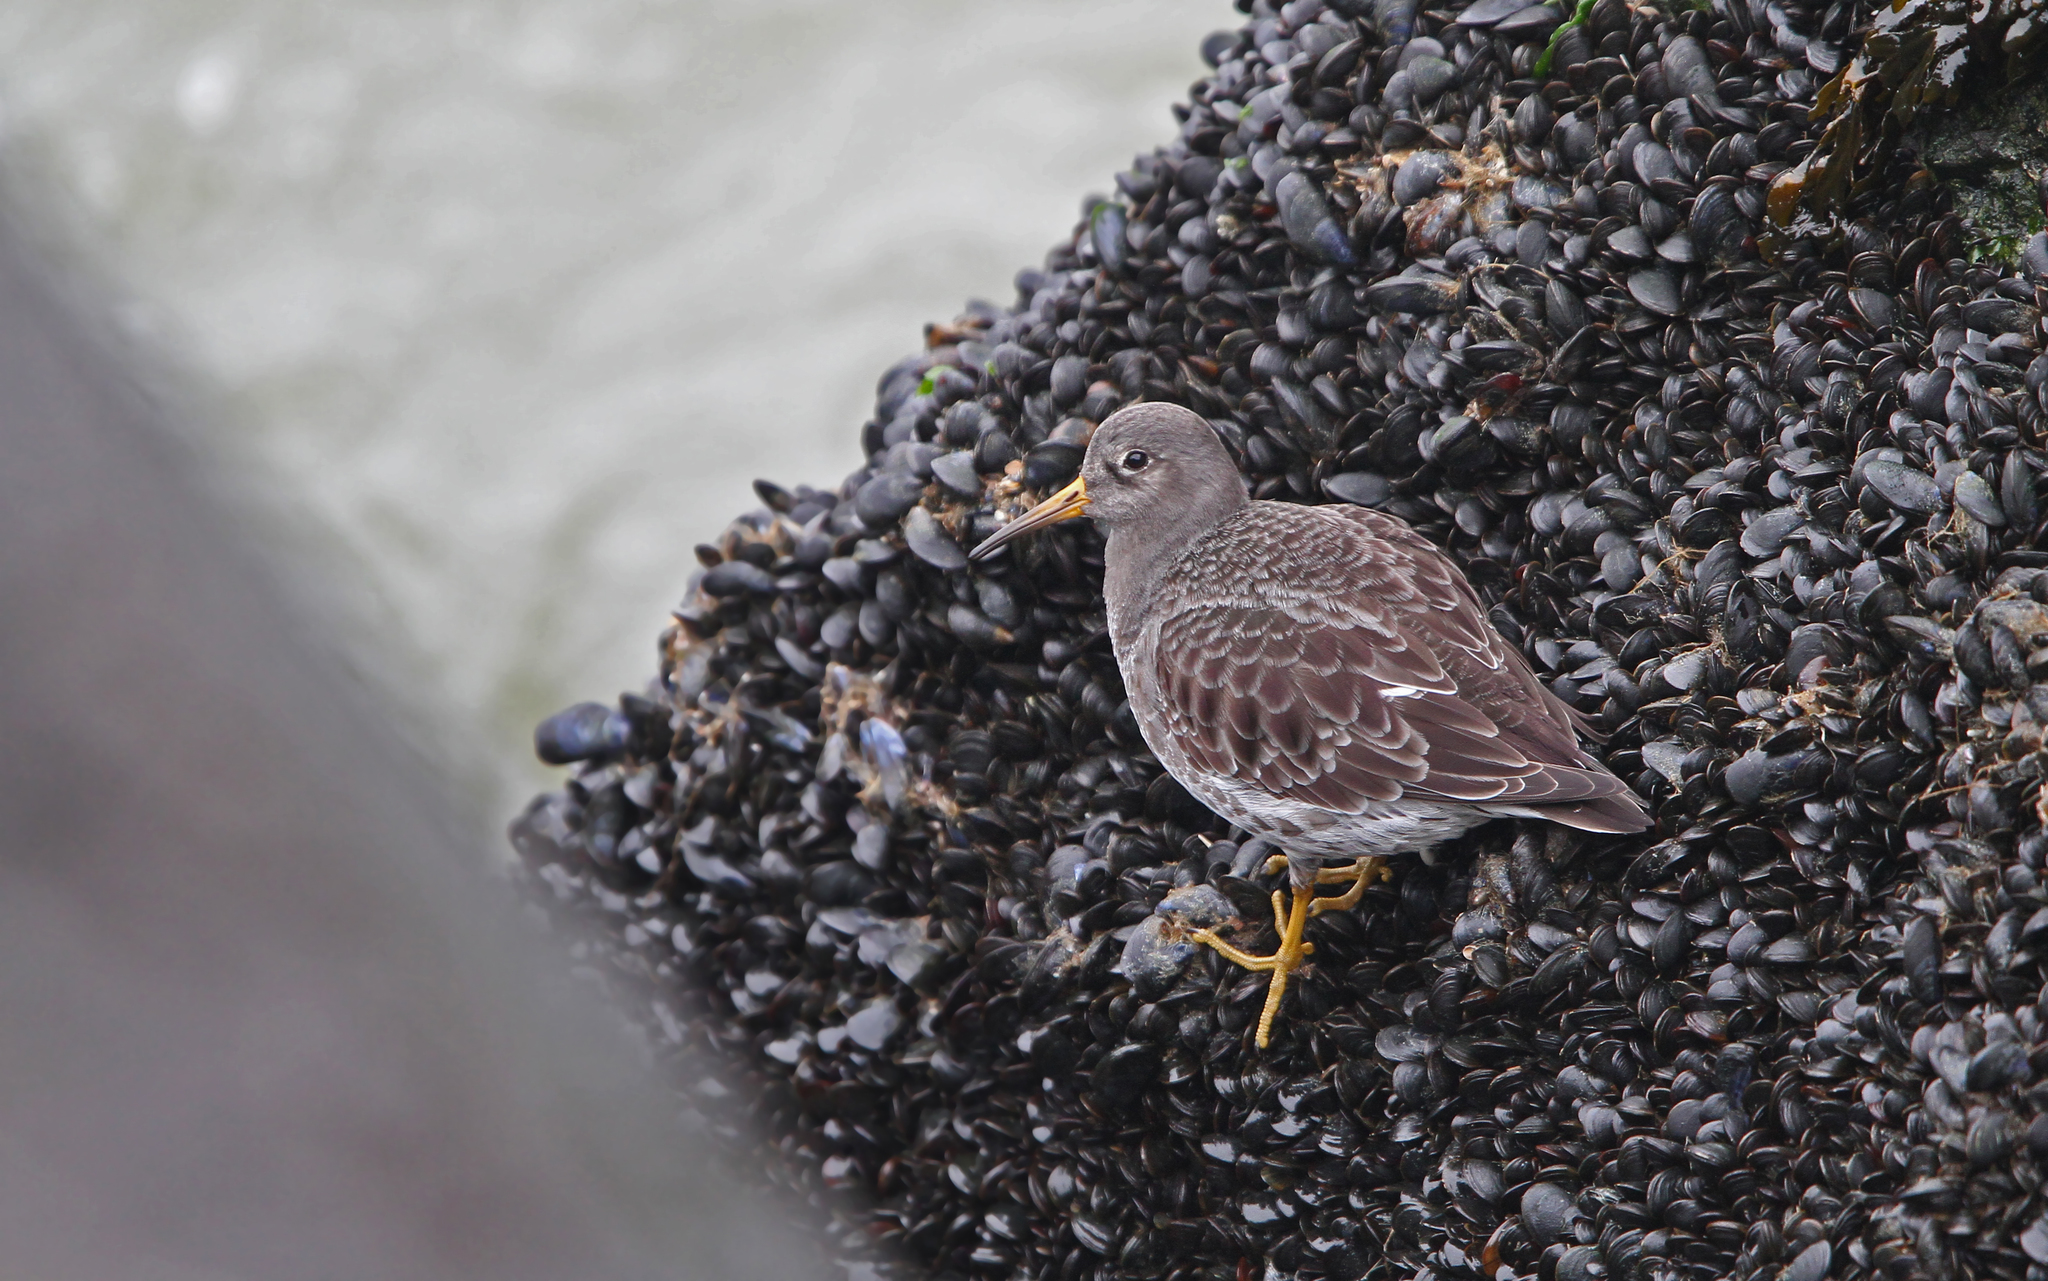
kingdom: Animalia
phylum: Chordata
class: Aves
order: Charadriiformes
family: Scolopacidae
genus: Calidris
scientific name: Calidris maritima
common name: Purple sandpiper
